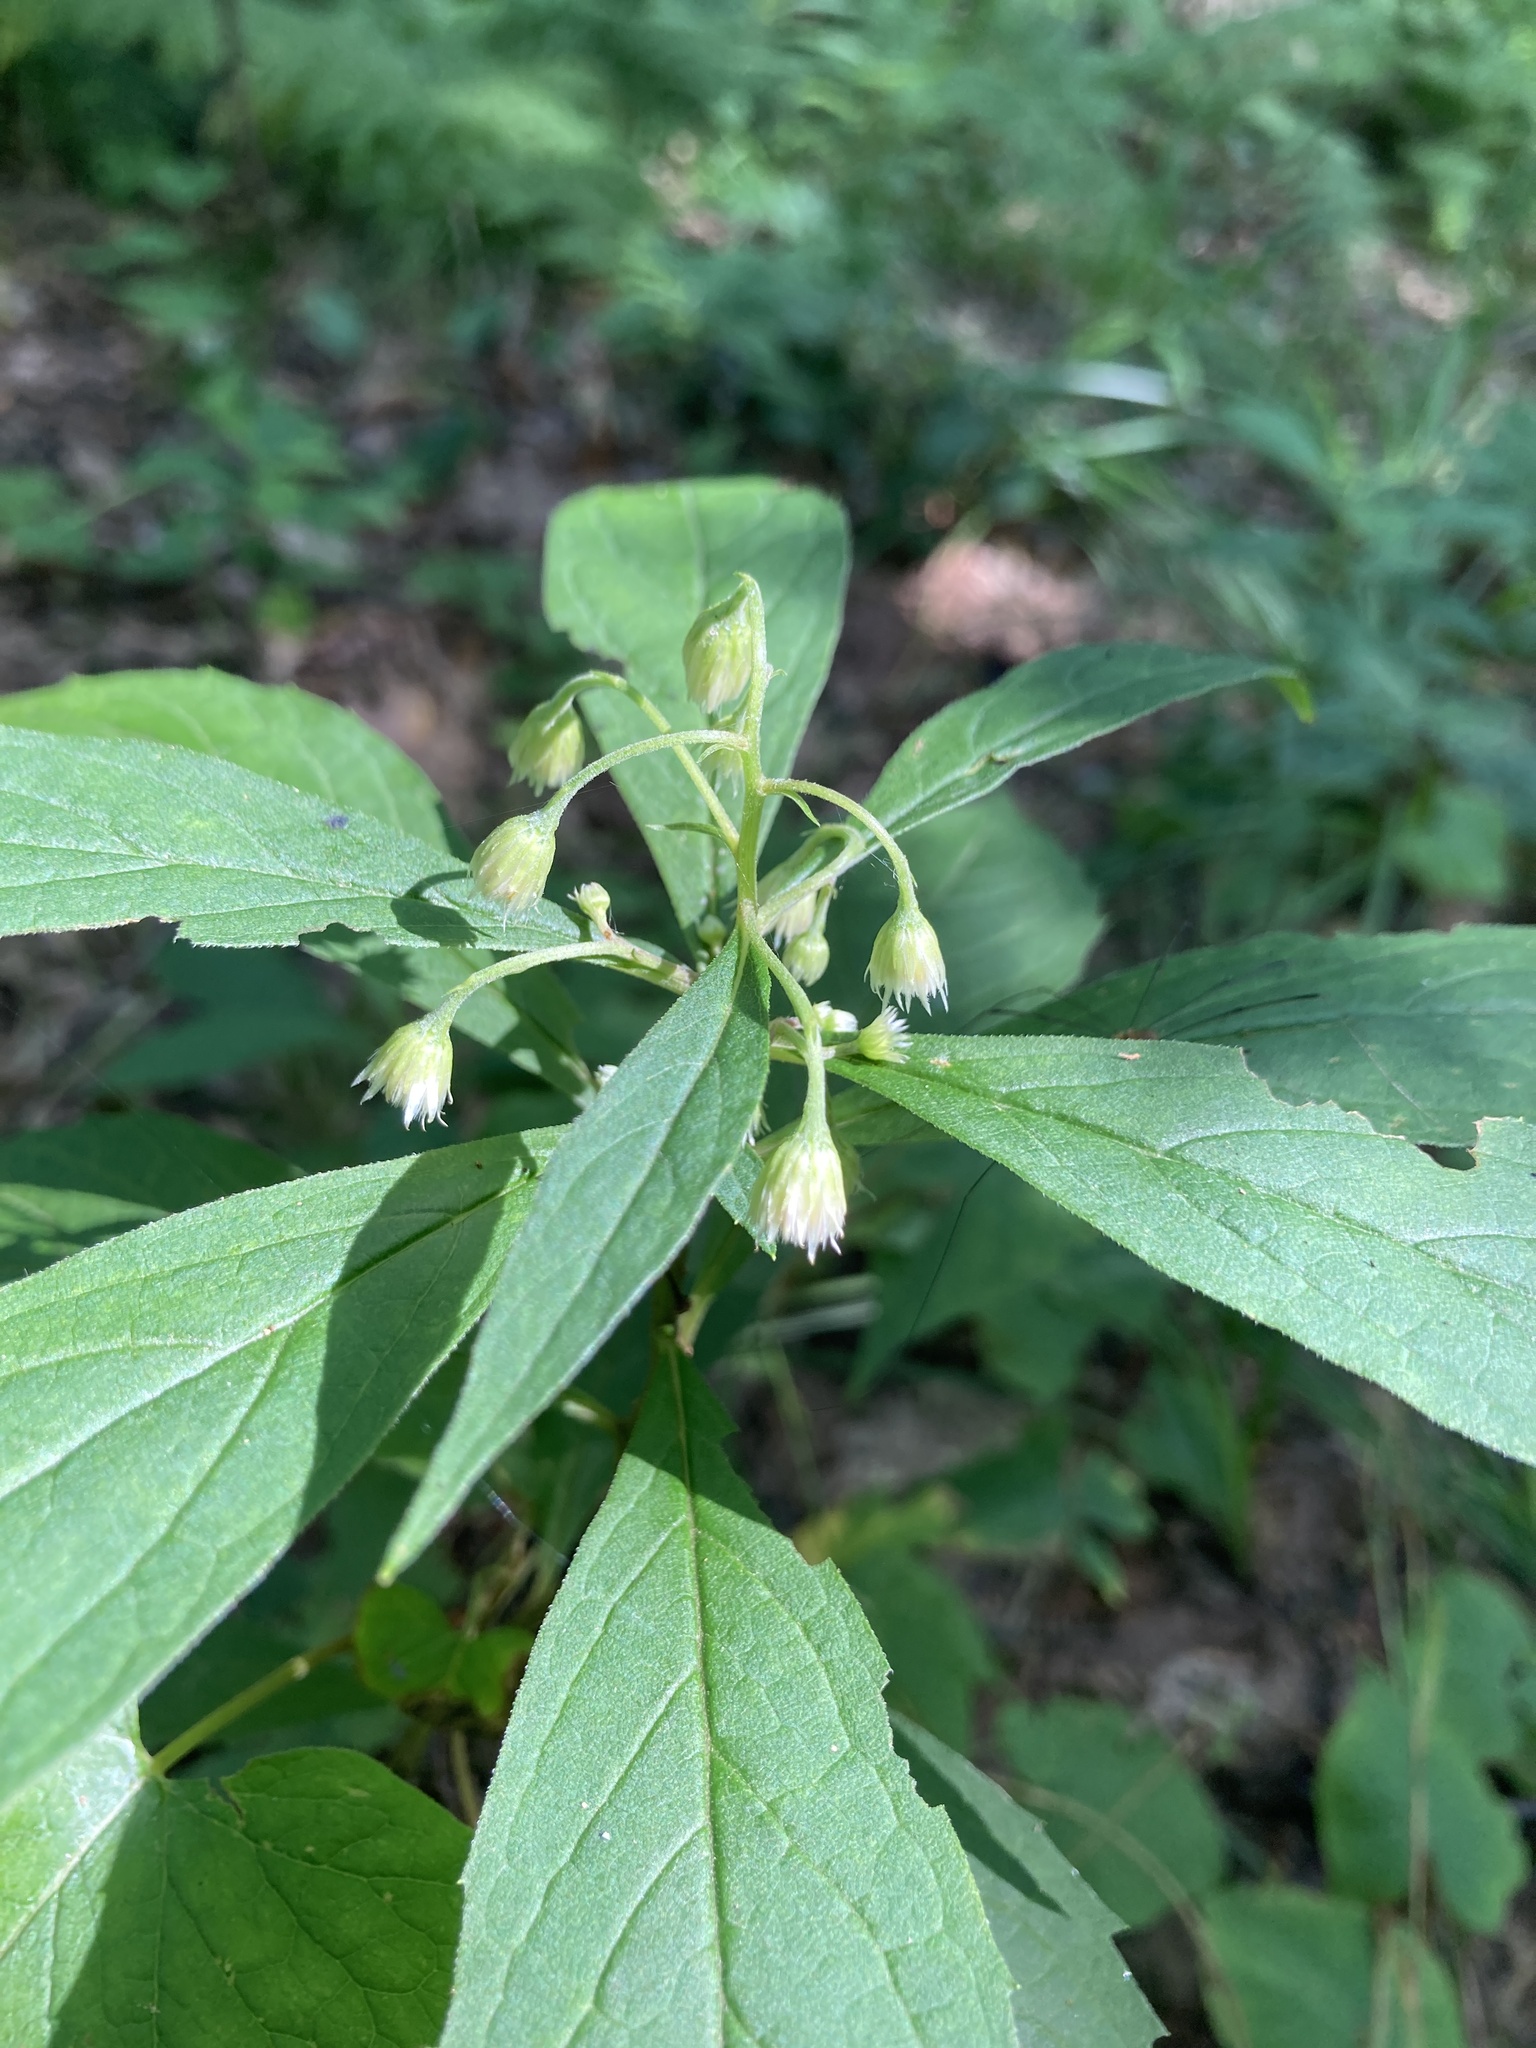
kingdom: Plantae
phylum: Tracheophyta
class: Magnoliopsida
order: Asterales
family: Asteraceae
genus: Oclemena
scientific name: Oclemena acuminata
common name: Mountain aster
